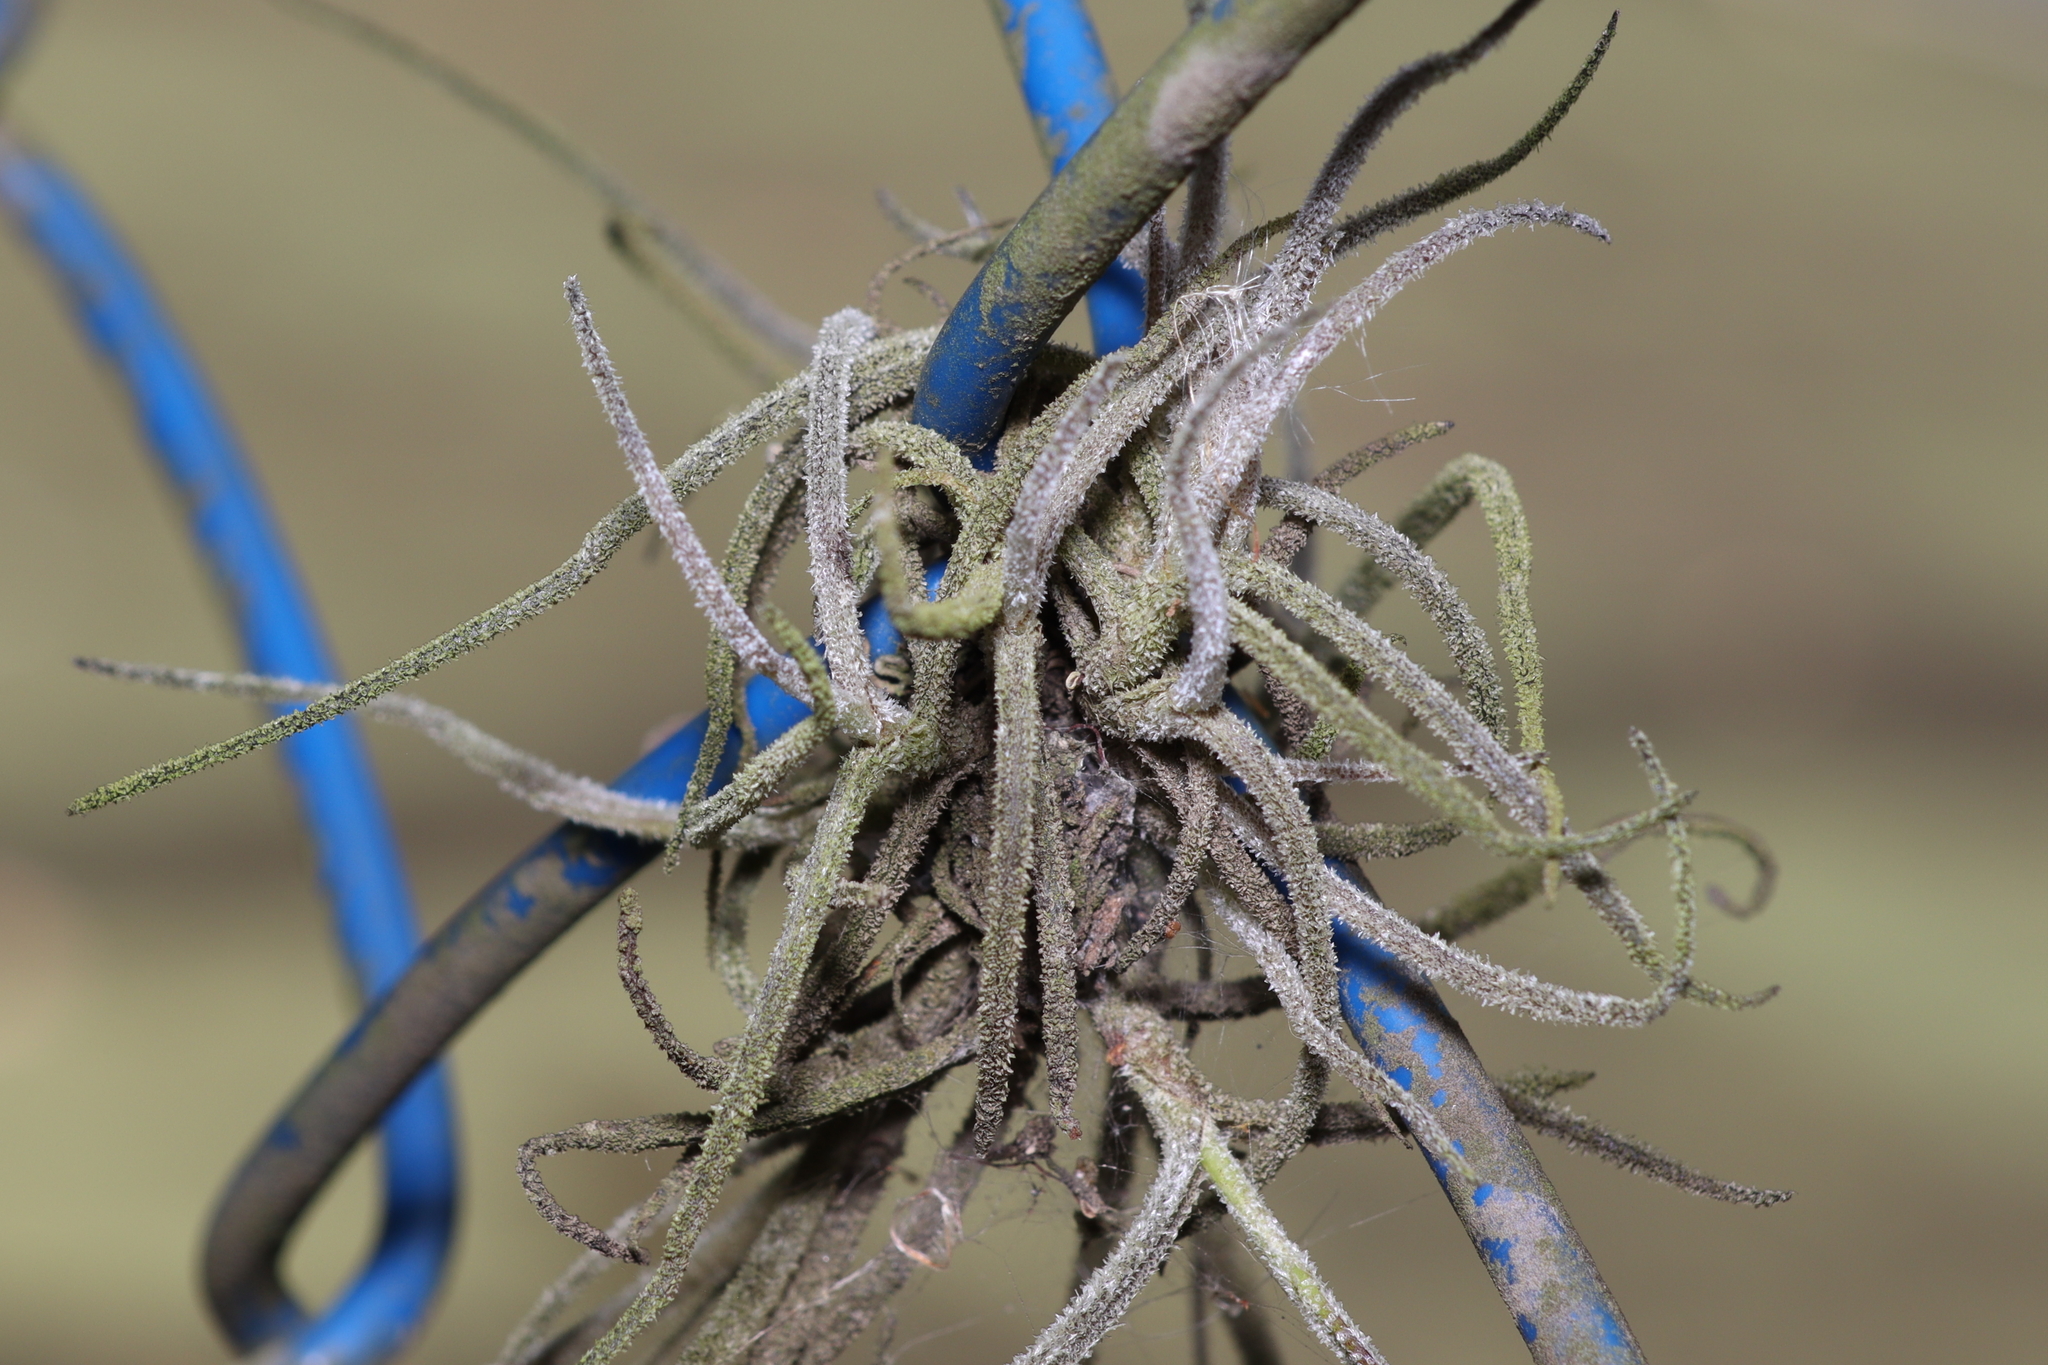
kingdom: Plantae
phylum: Tracheophyta
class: Liliopsida
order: Poales
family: Bromeliaceae
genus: Tillandsia
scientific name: Tillandsia recurvata
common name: Small ballmoss
